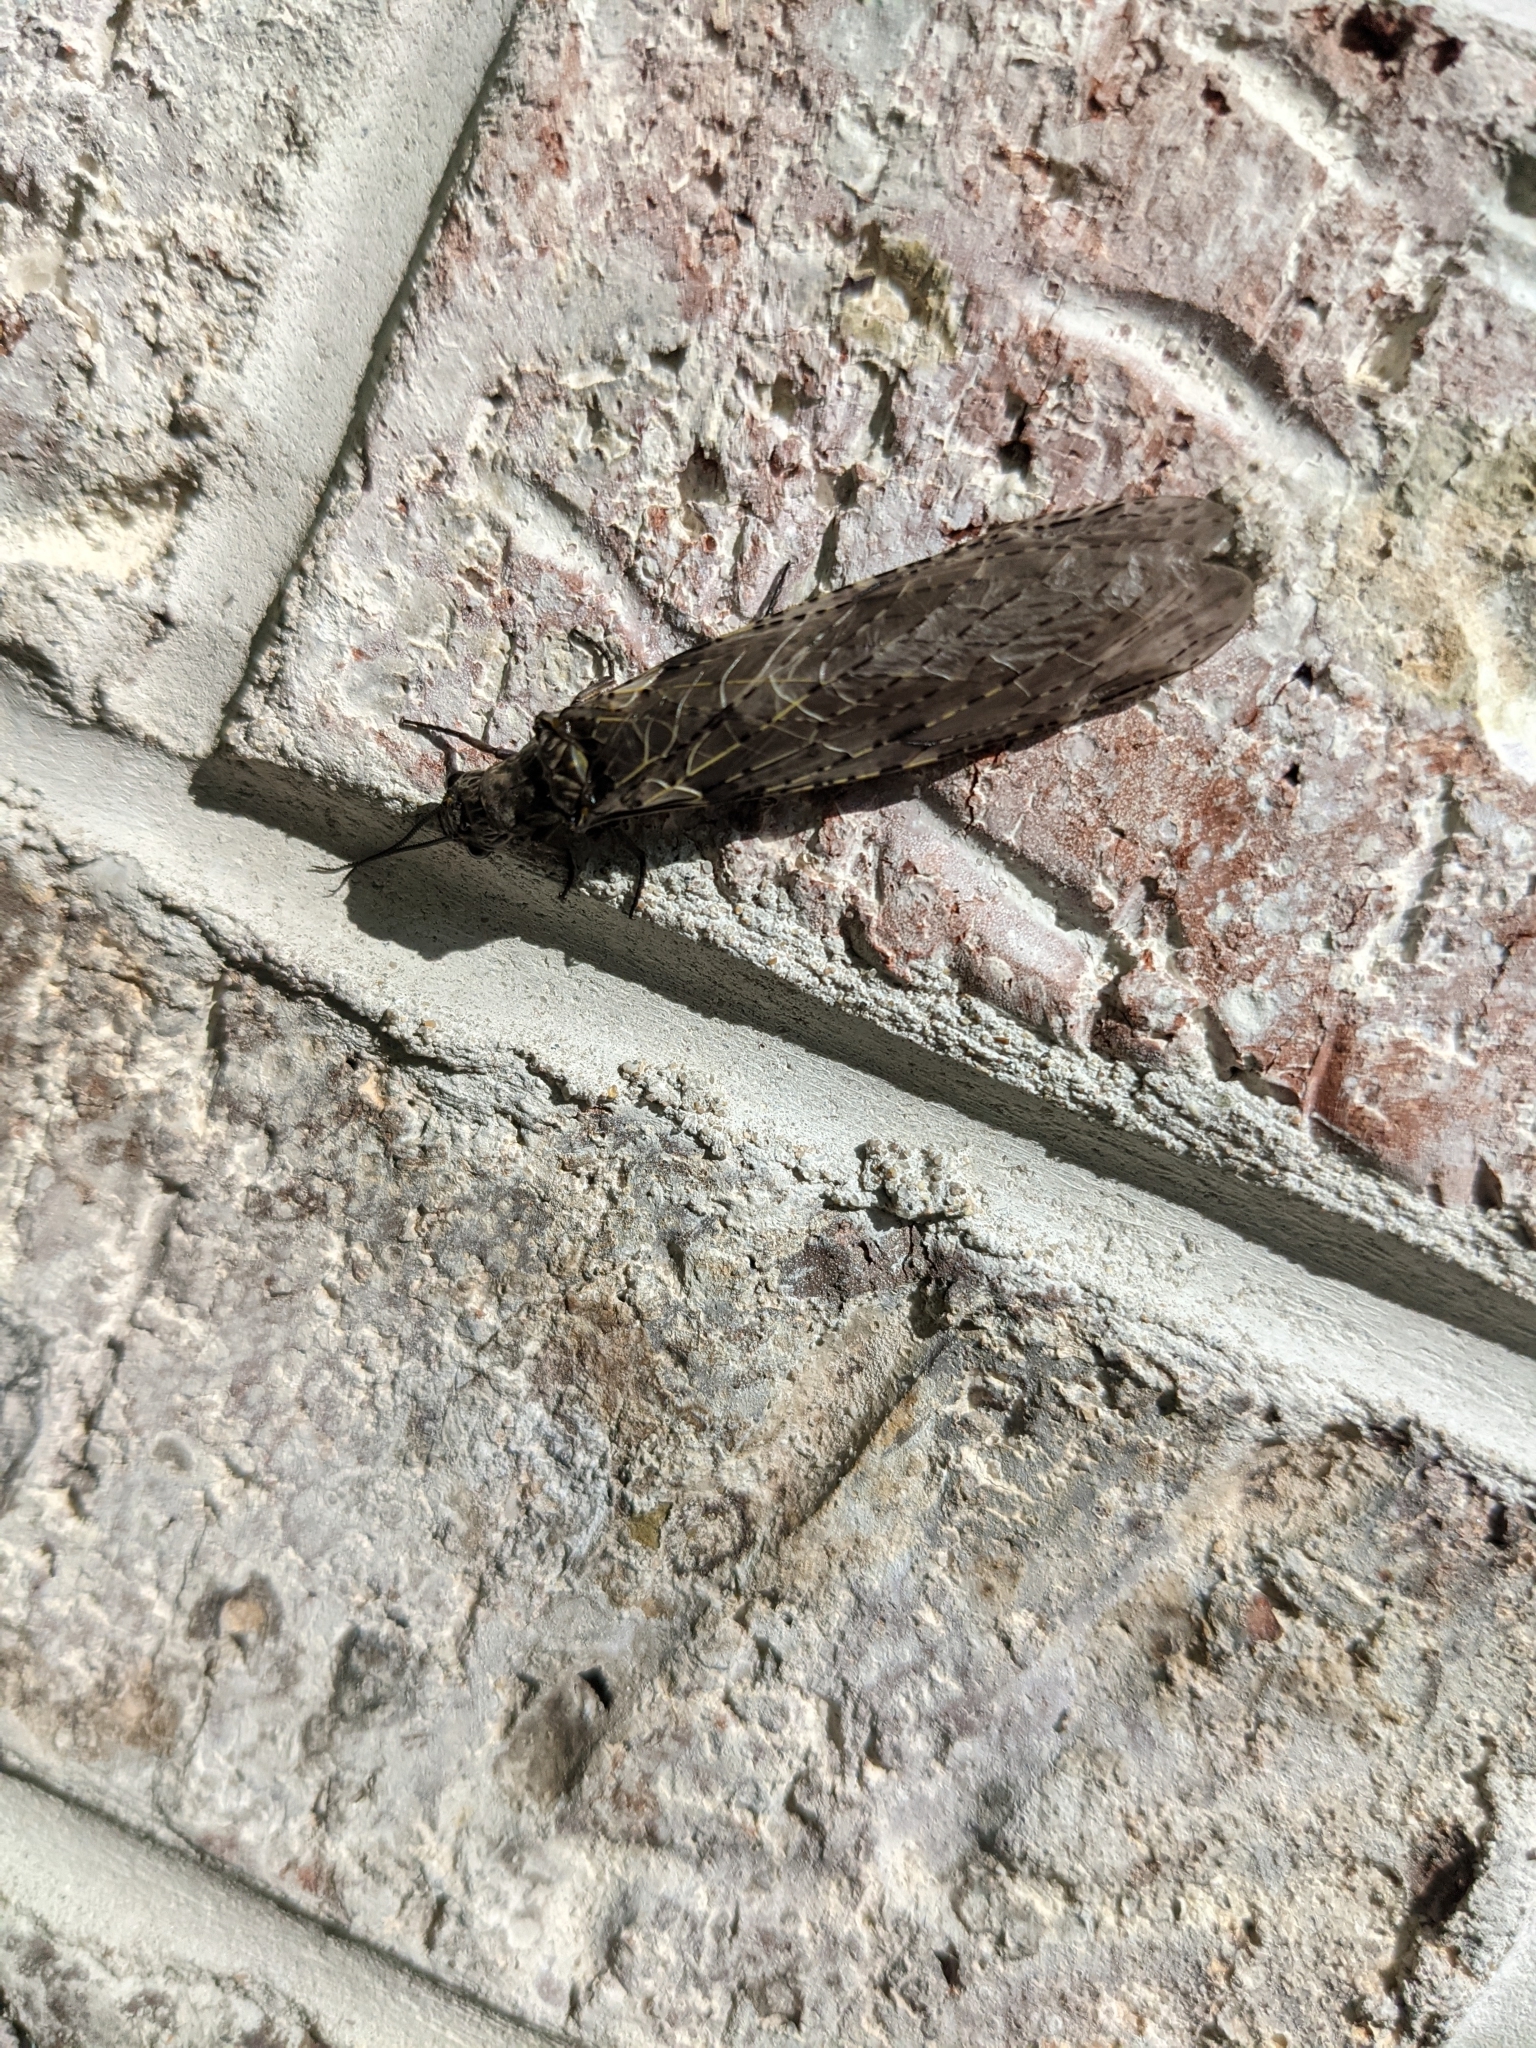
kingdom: Animalia
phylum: Arthropoda
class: Insecta
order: Megaloptera
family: Corydalidae
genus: Chauliodes
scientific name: Chauliodes rastricornis
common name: Spring fishfly
